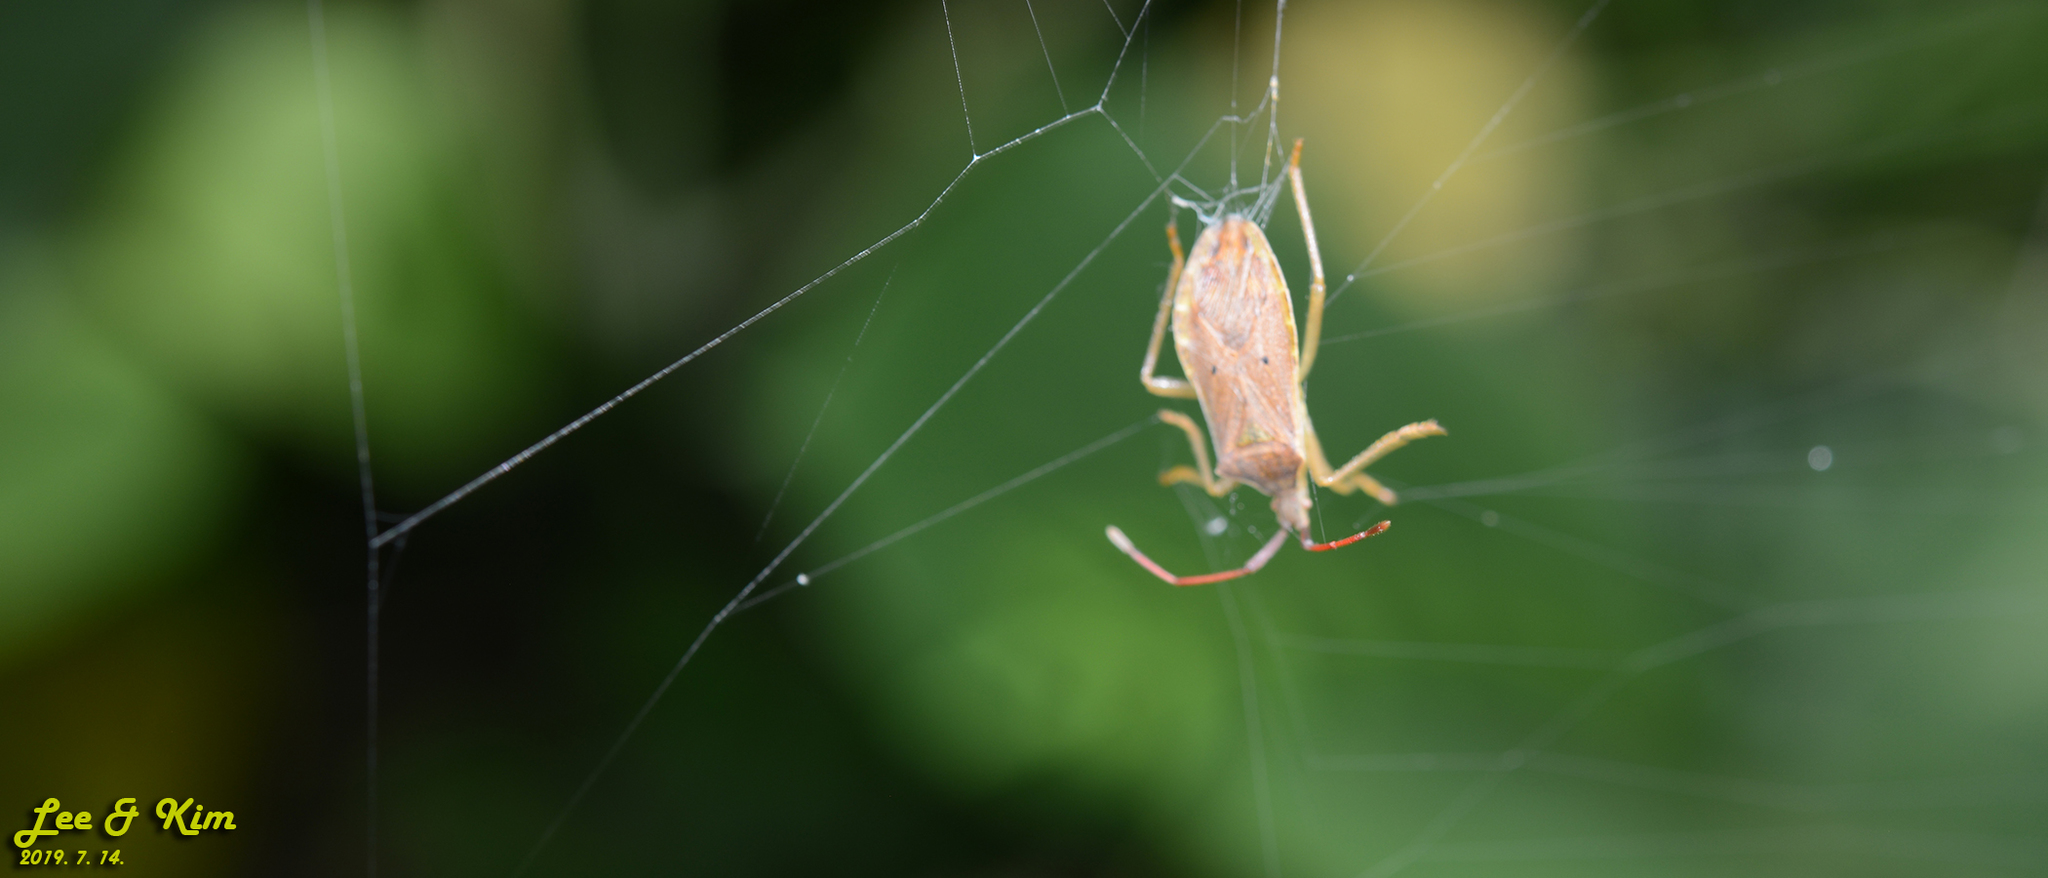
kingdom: Animalia
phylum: Arthropoda
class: Insecta
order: Hemiptera
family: Coreidae
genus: Homoeocerus
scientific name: Homoeocerus unipunctatus
